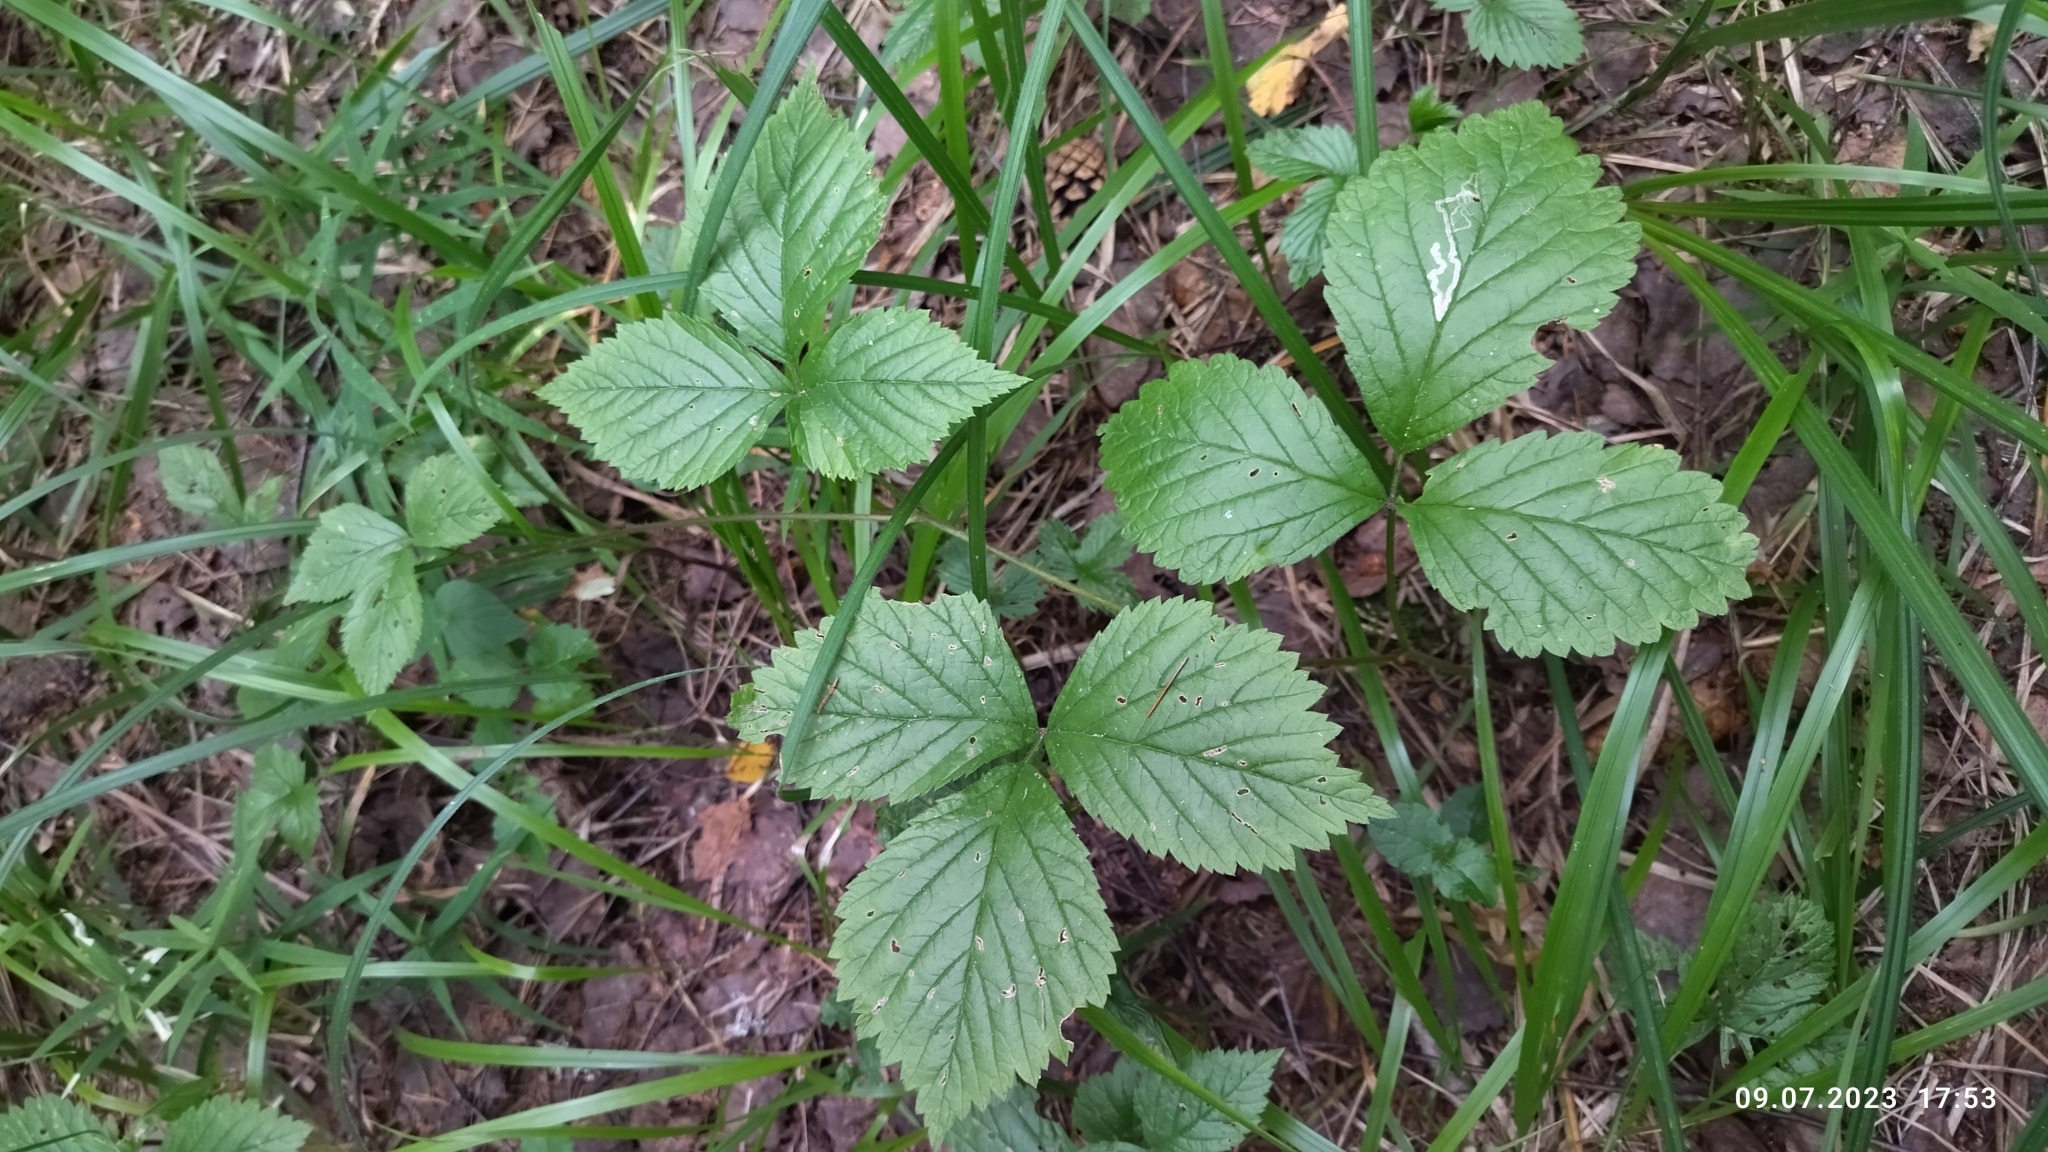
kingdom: Plantae
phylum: Tracheophyta
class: Magnoliopsida
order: Rosales
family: Rosaceae
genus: Rubus
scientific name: Rubus saxatilis
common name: Stone bramble
